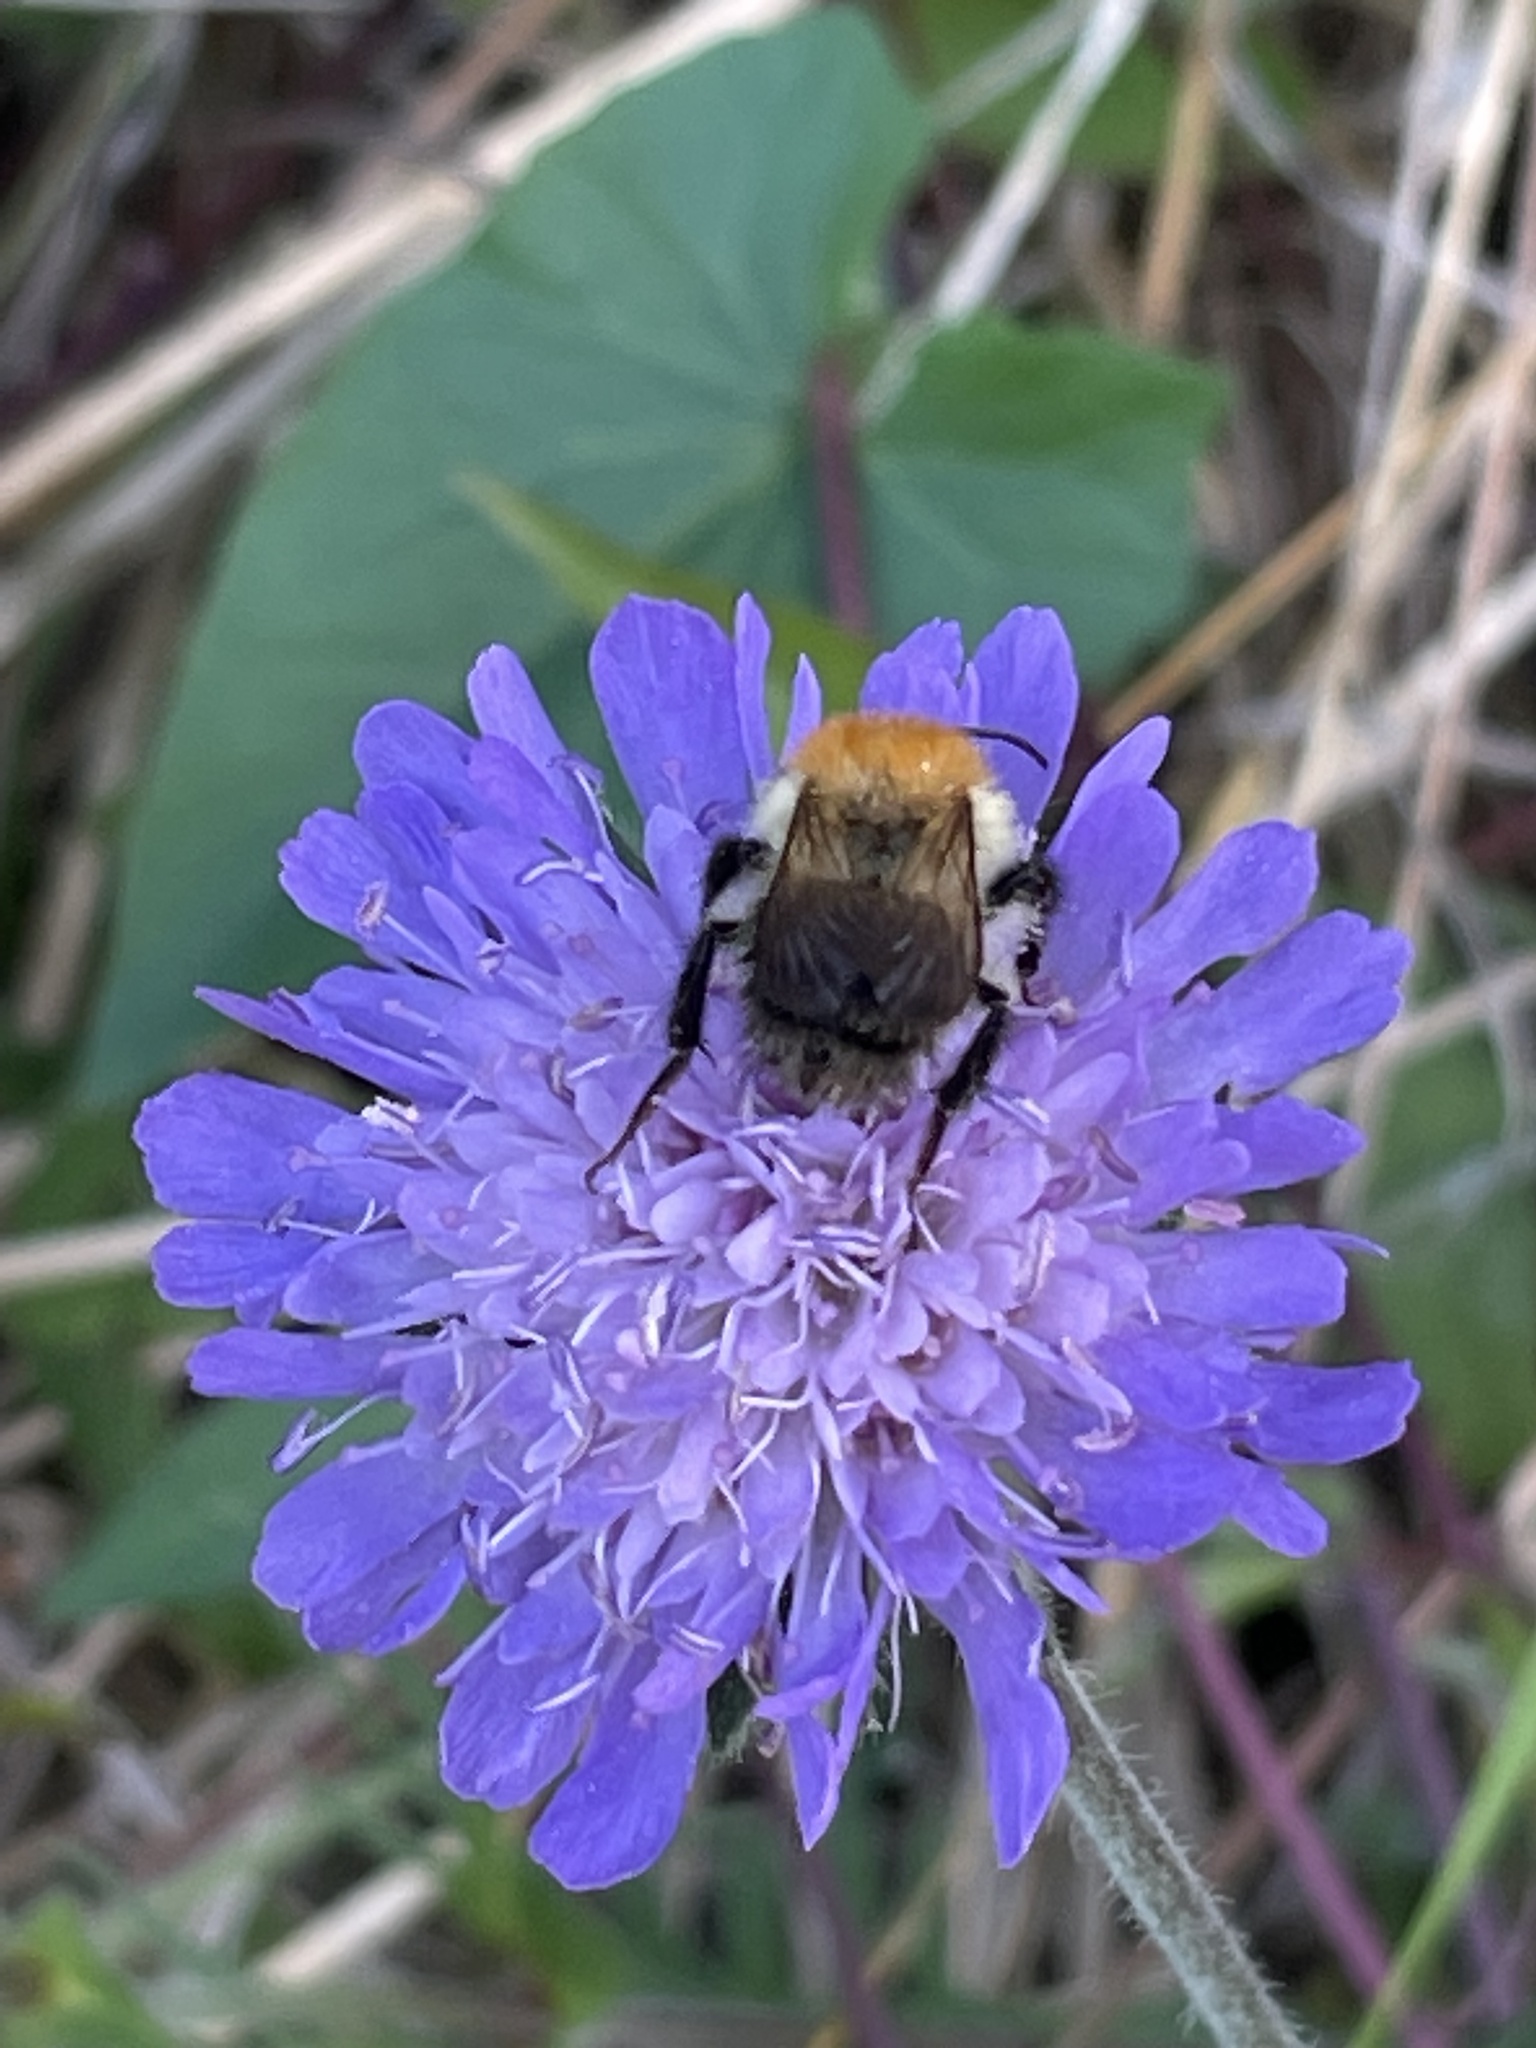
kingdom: Animalia
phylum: Arthropoda
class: Insecta
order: Hymenoptera
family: Apidae
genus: Bombus
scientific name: Bombus pascuorum
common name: Common carder bee
